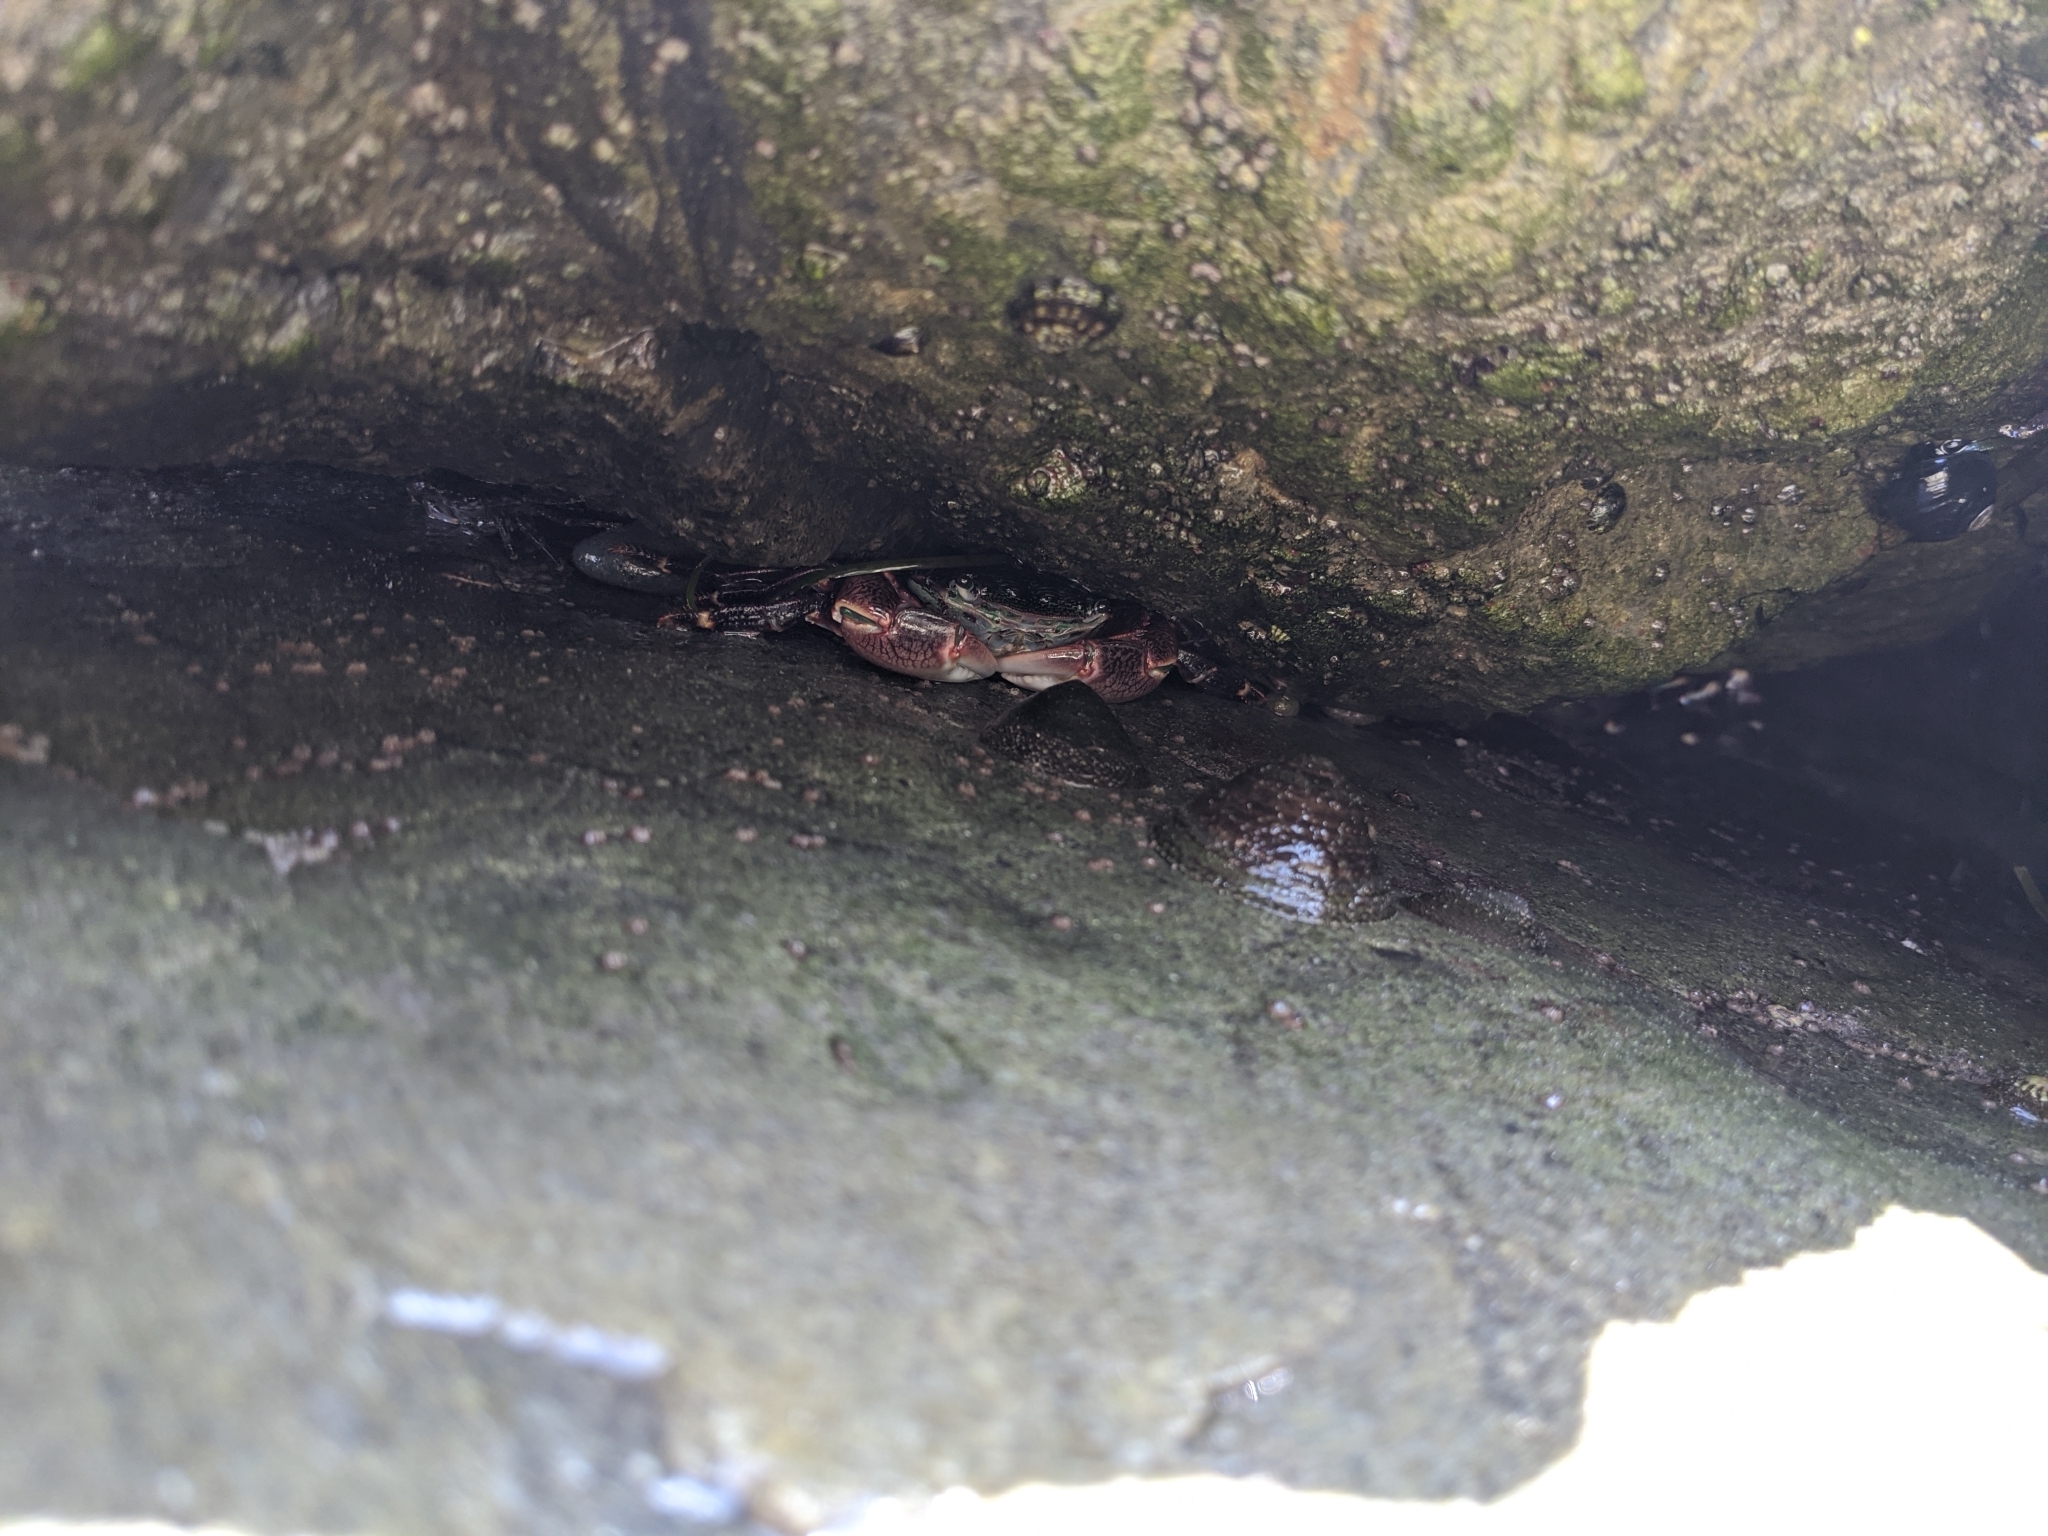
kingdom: Animalia
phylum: Arthropoda
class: Malacostraca
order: Decapoda
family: Grapsidae
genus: Pachygrapsus
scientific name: Pachygrapsus crassipes
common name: Striped shore crab
